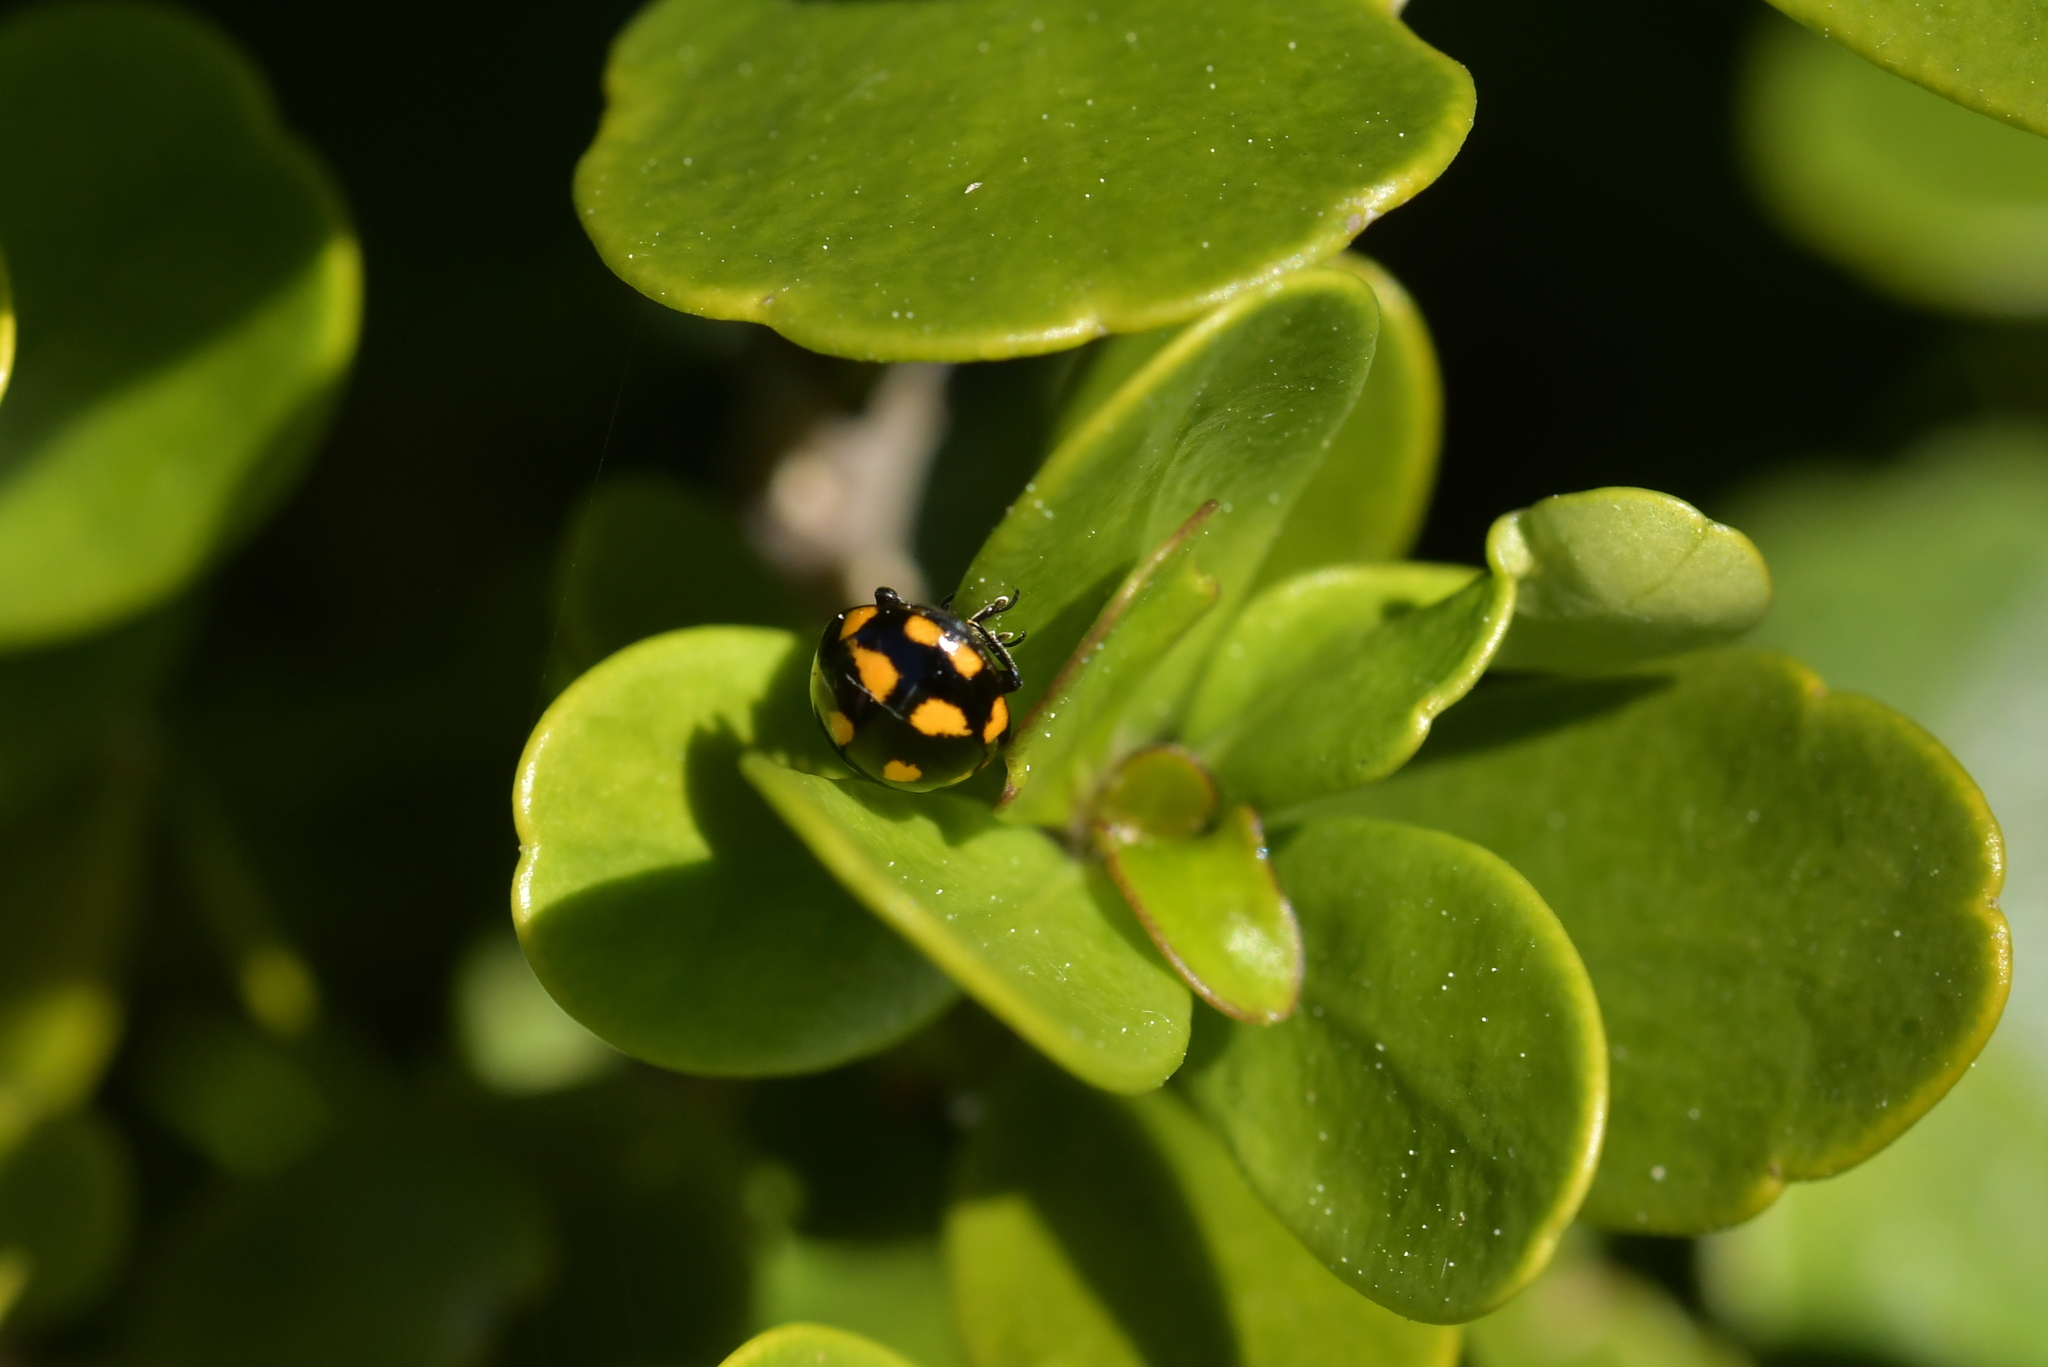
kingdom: Animalia
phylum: Arthropoda
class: Insecta
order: Coleoptera
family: Coccinellidae
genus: Coccinella
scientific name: Coccinella leonina
